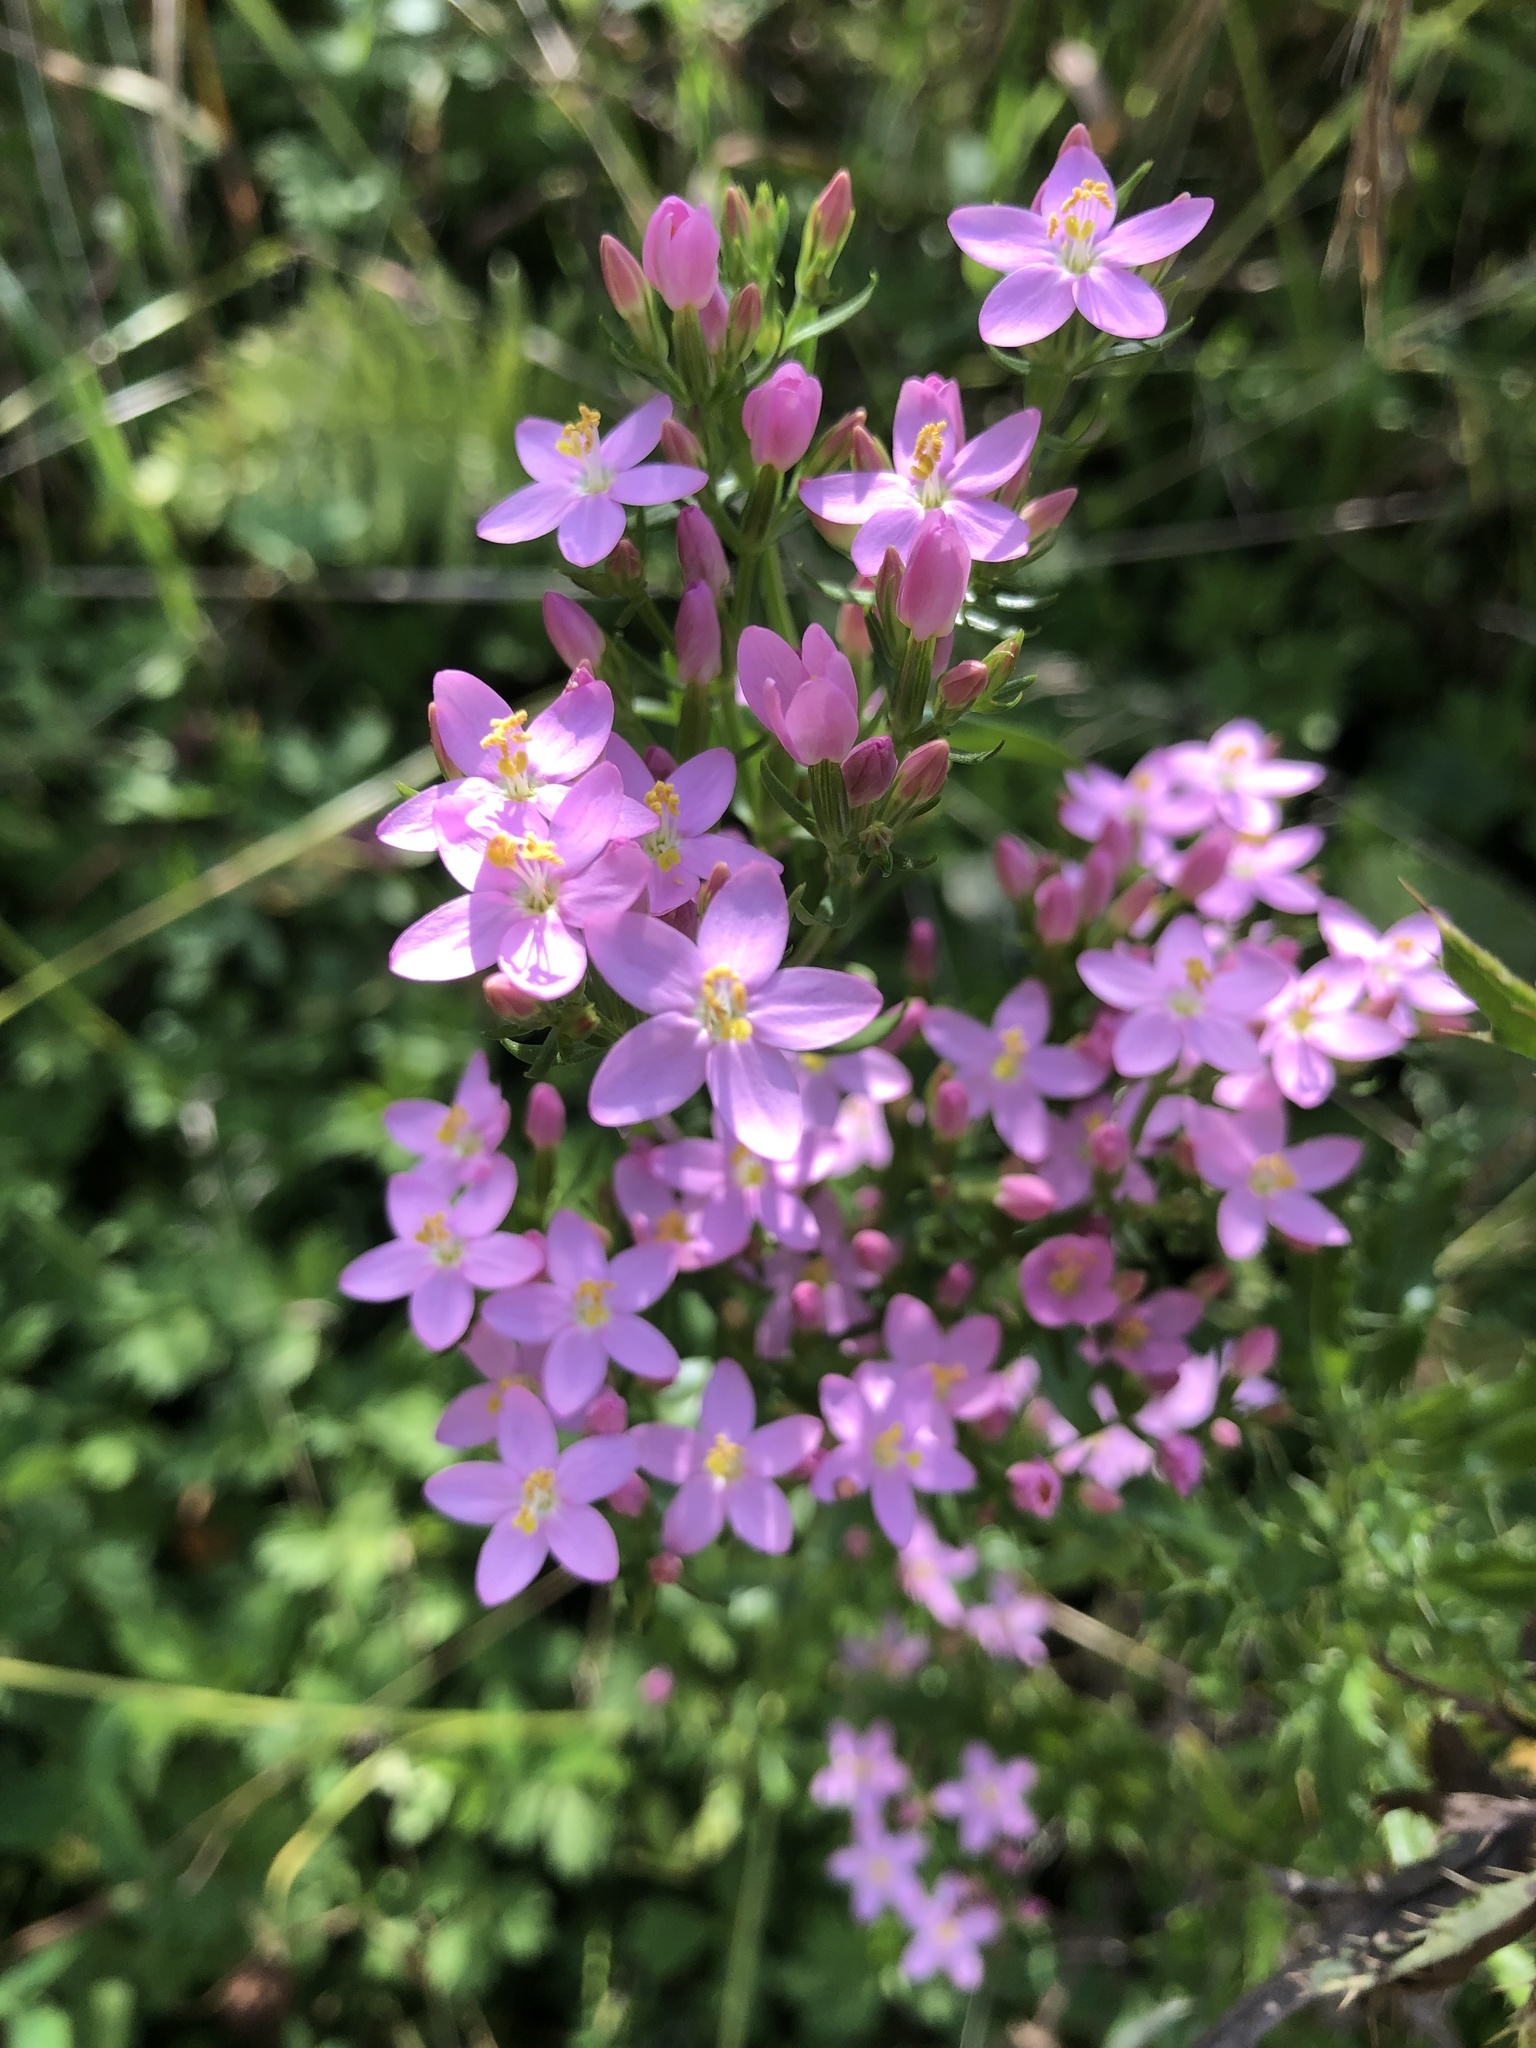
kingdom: Plantae
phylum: Tracheophyta
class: Magnoliopsida
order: Gentianales
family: Gentianaceae
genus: Centaurium
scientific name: Centaurium erythraea
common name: Common centaury
